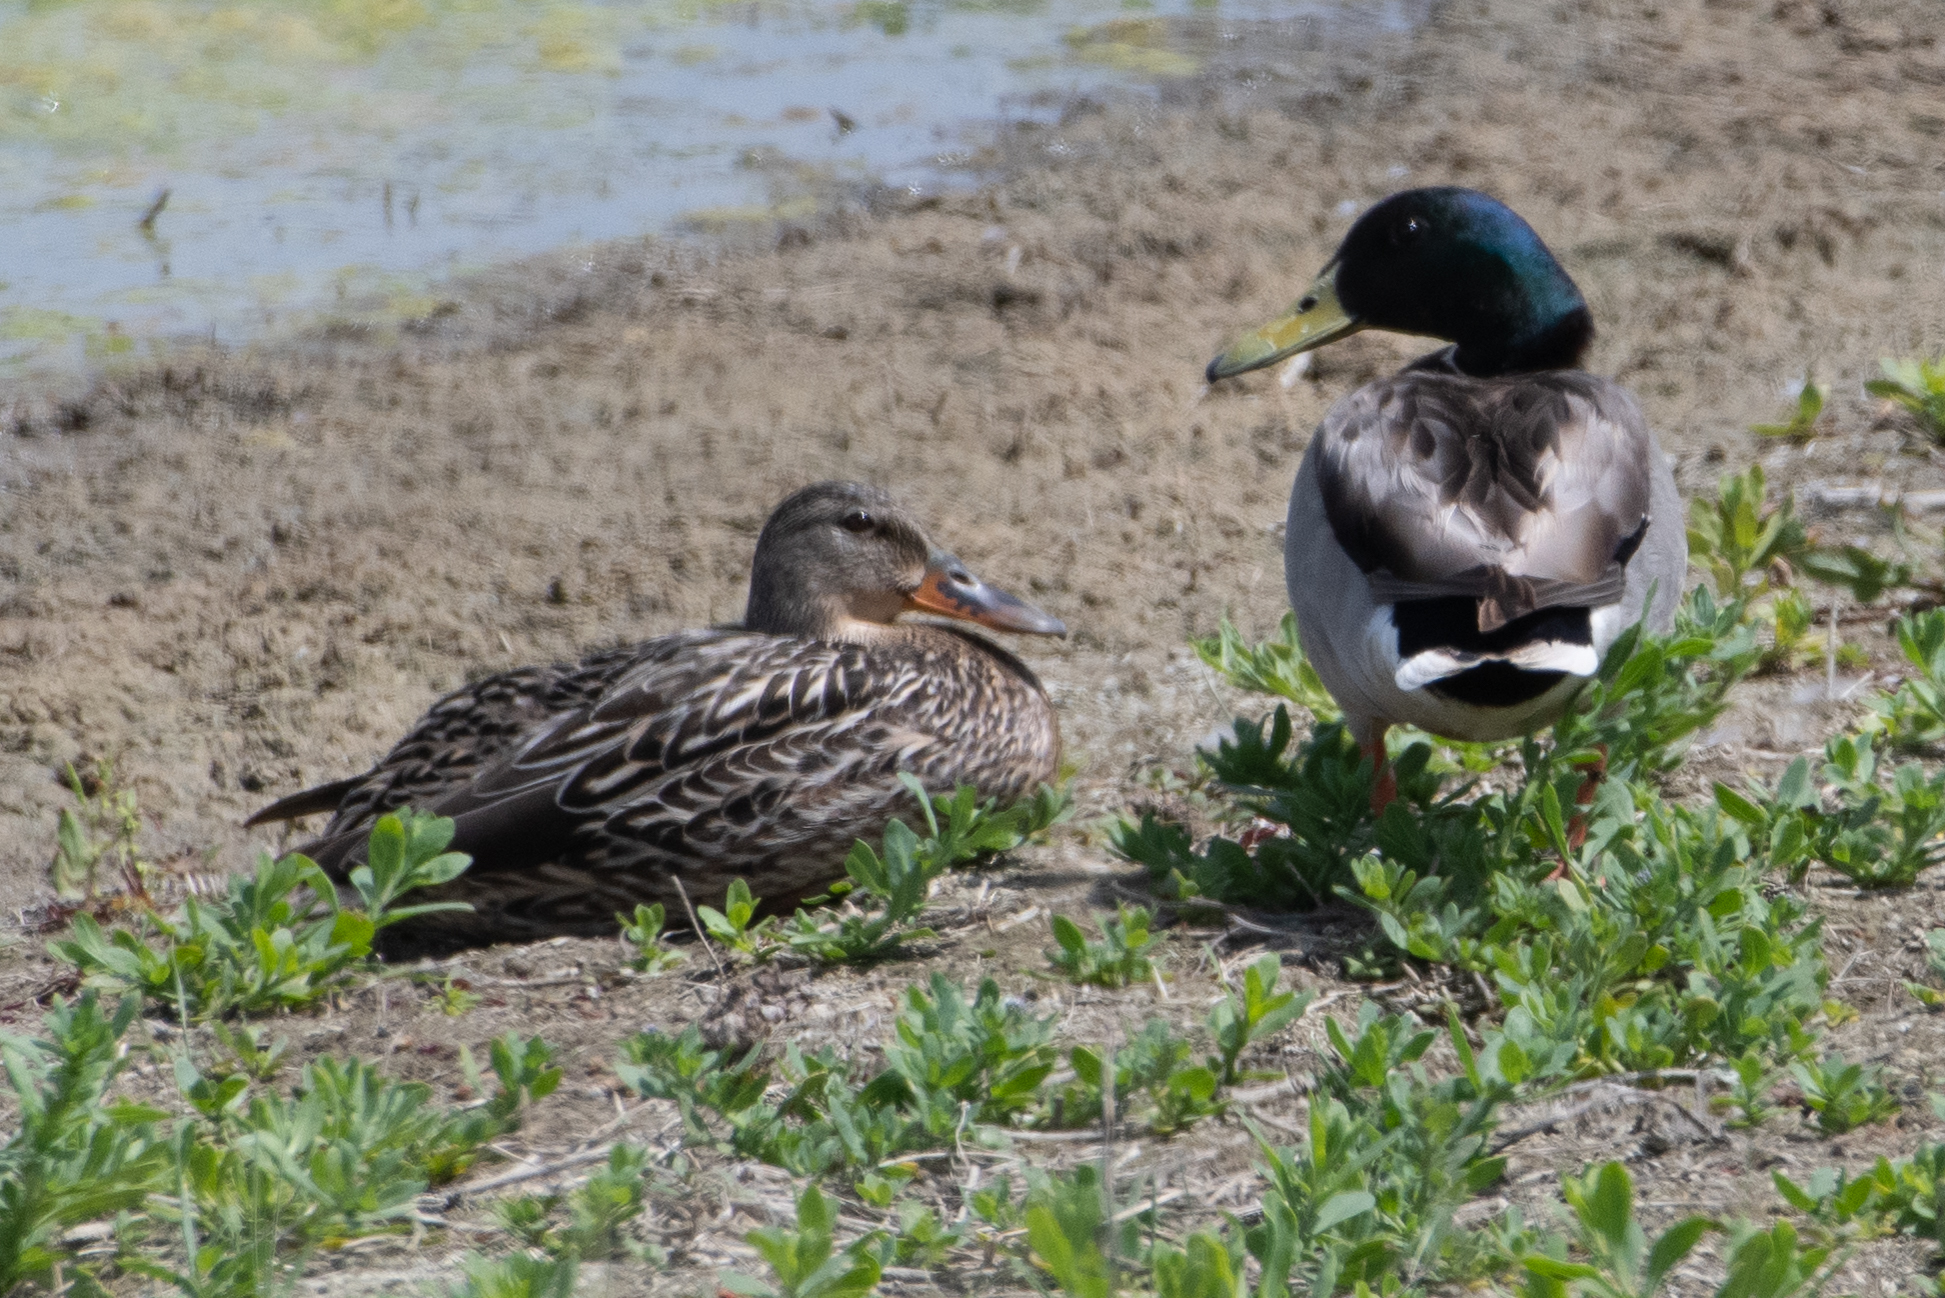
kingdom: Animalia
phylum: Chordata
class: Aves
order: Anseriformes
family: Anatidae
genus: Anas
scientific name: Anas platyrhynchos
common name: Mallard
